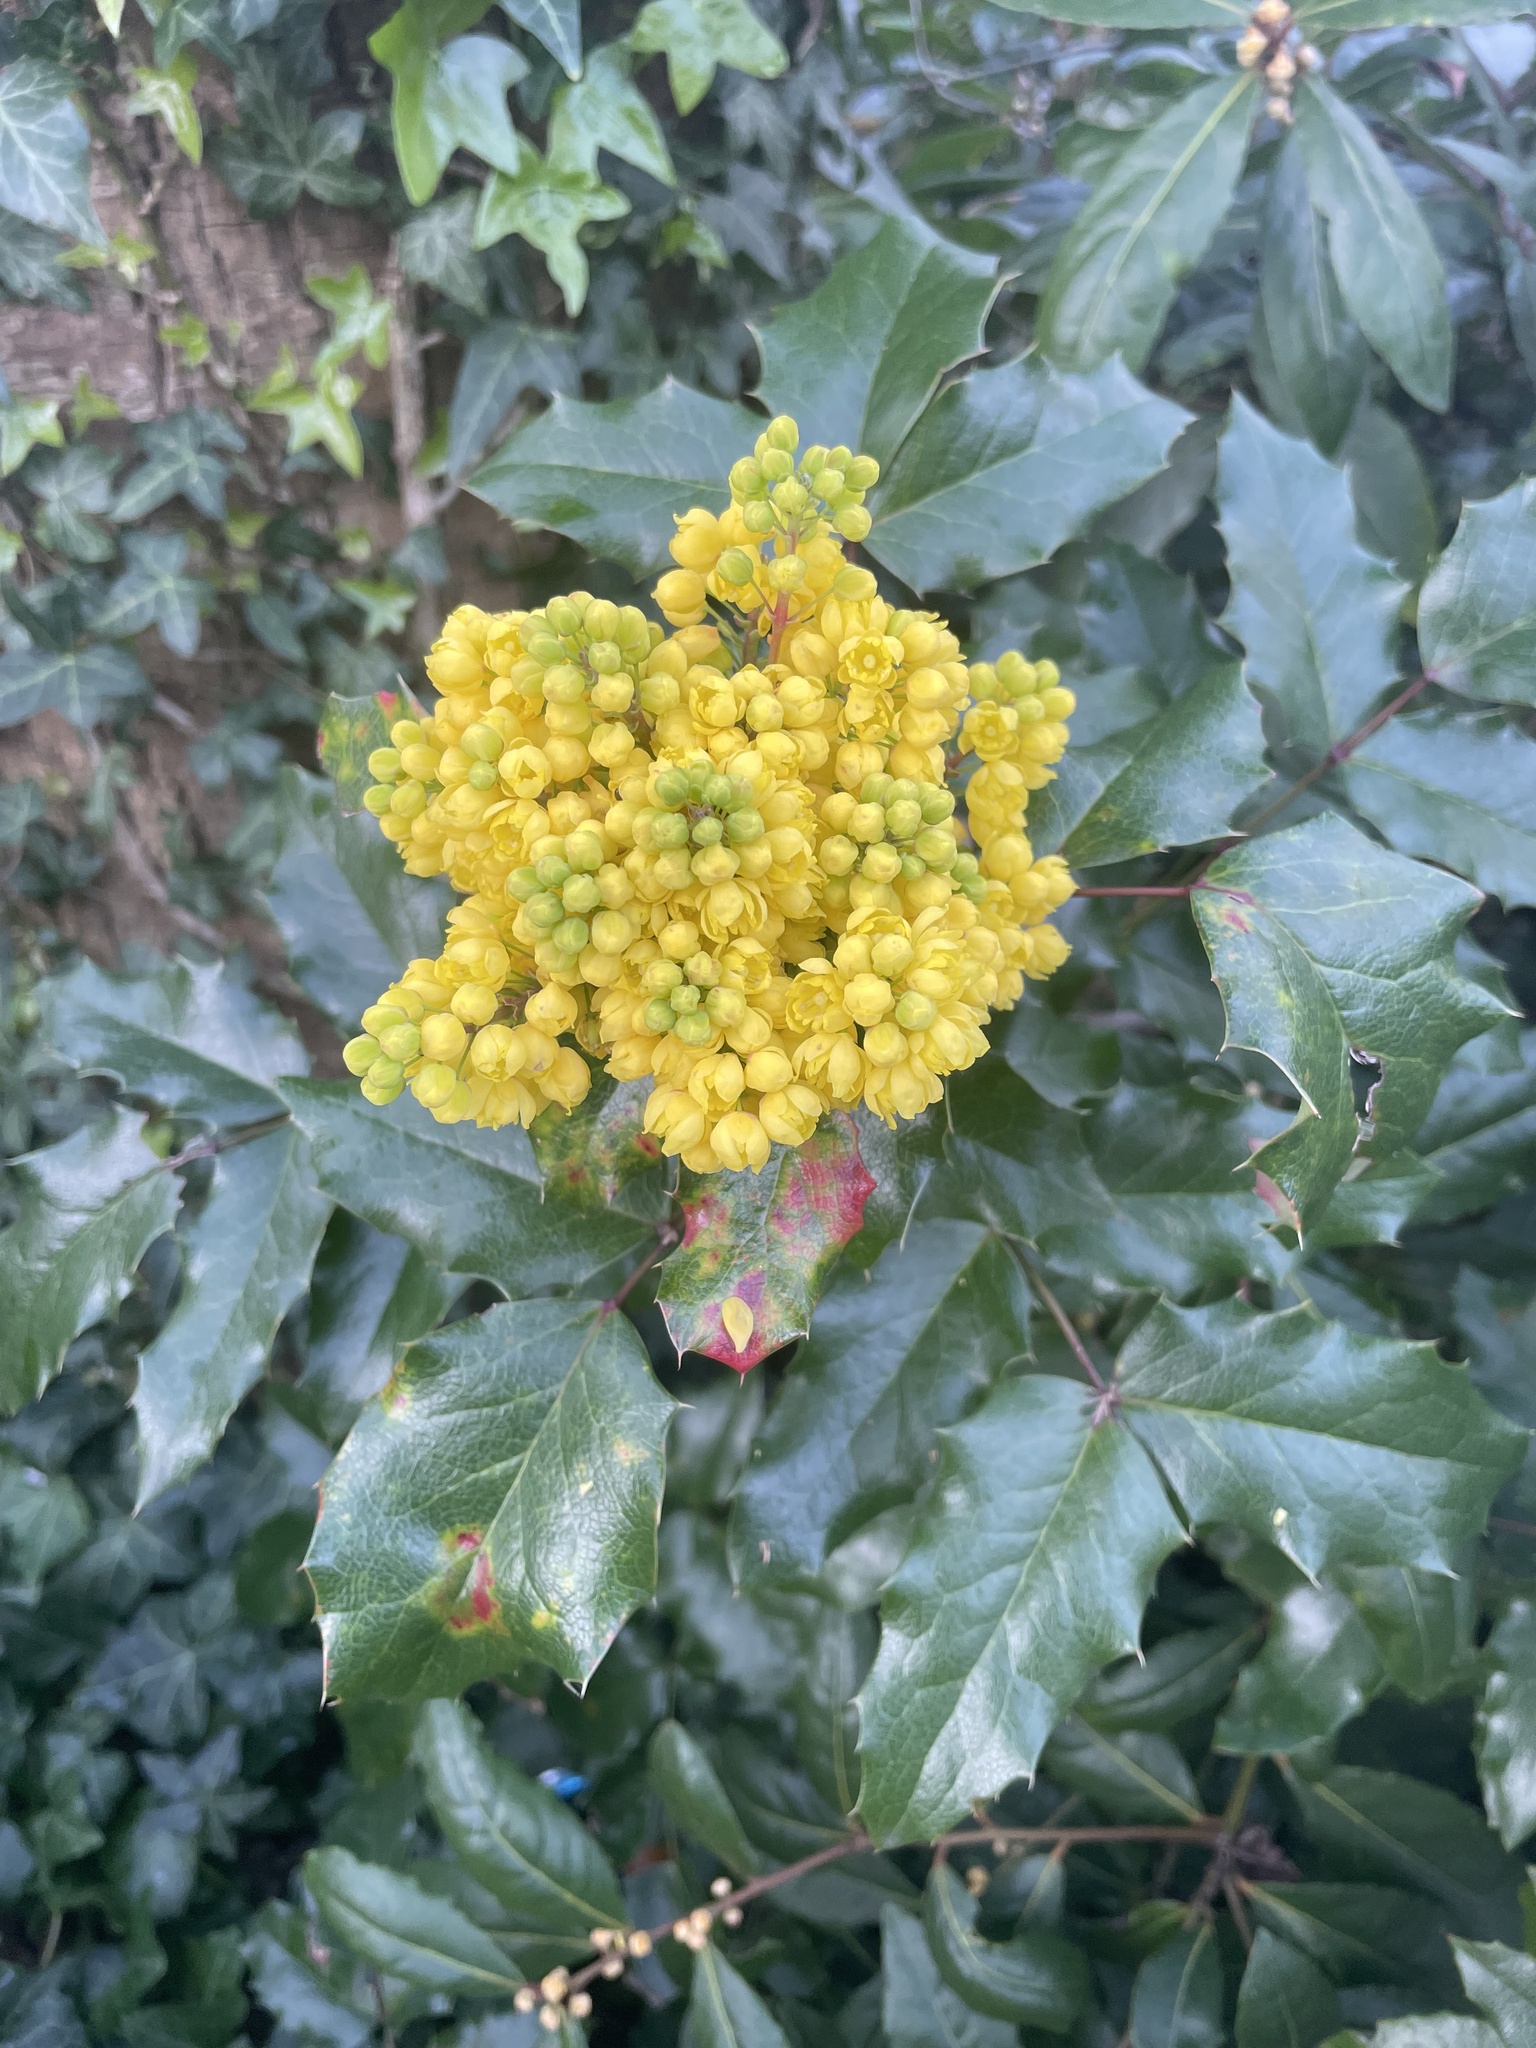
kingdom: Plantae
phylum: Tracheophyta
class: Magnoliopsida
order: Ranunculales
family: Berberidaceae
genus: Mahonia
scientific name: Mahonia aquifolium
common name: Oregon-grape
